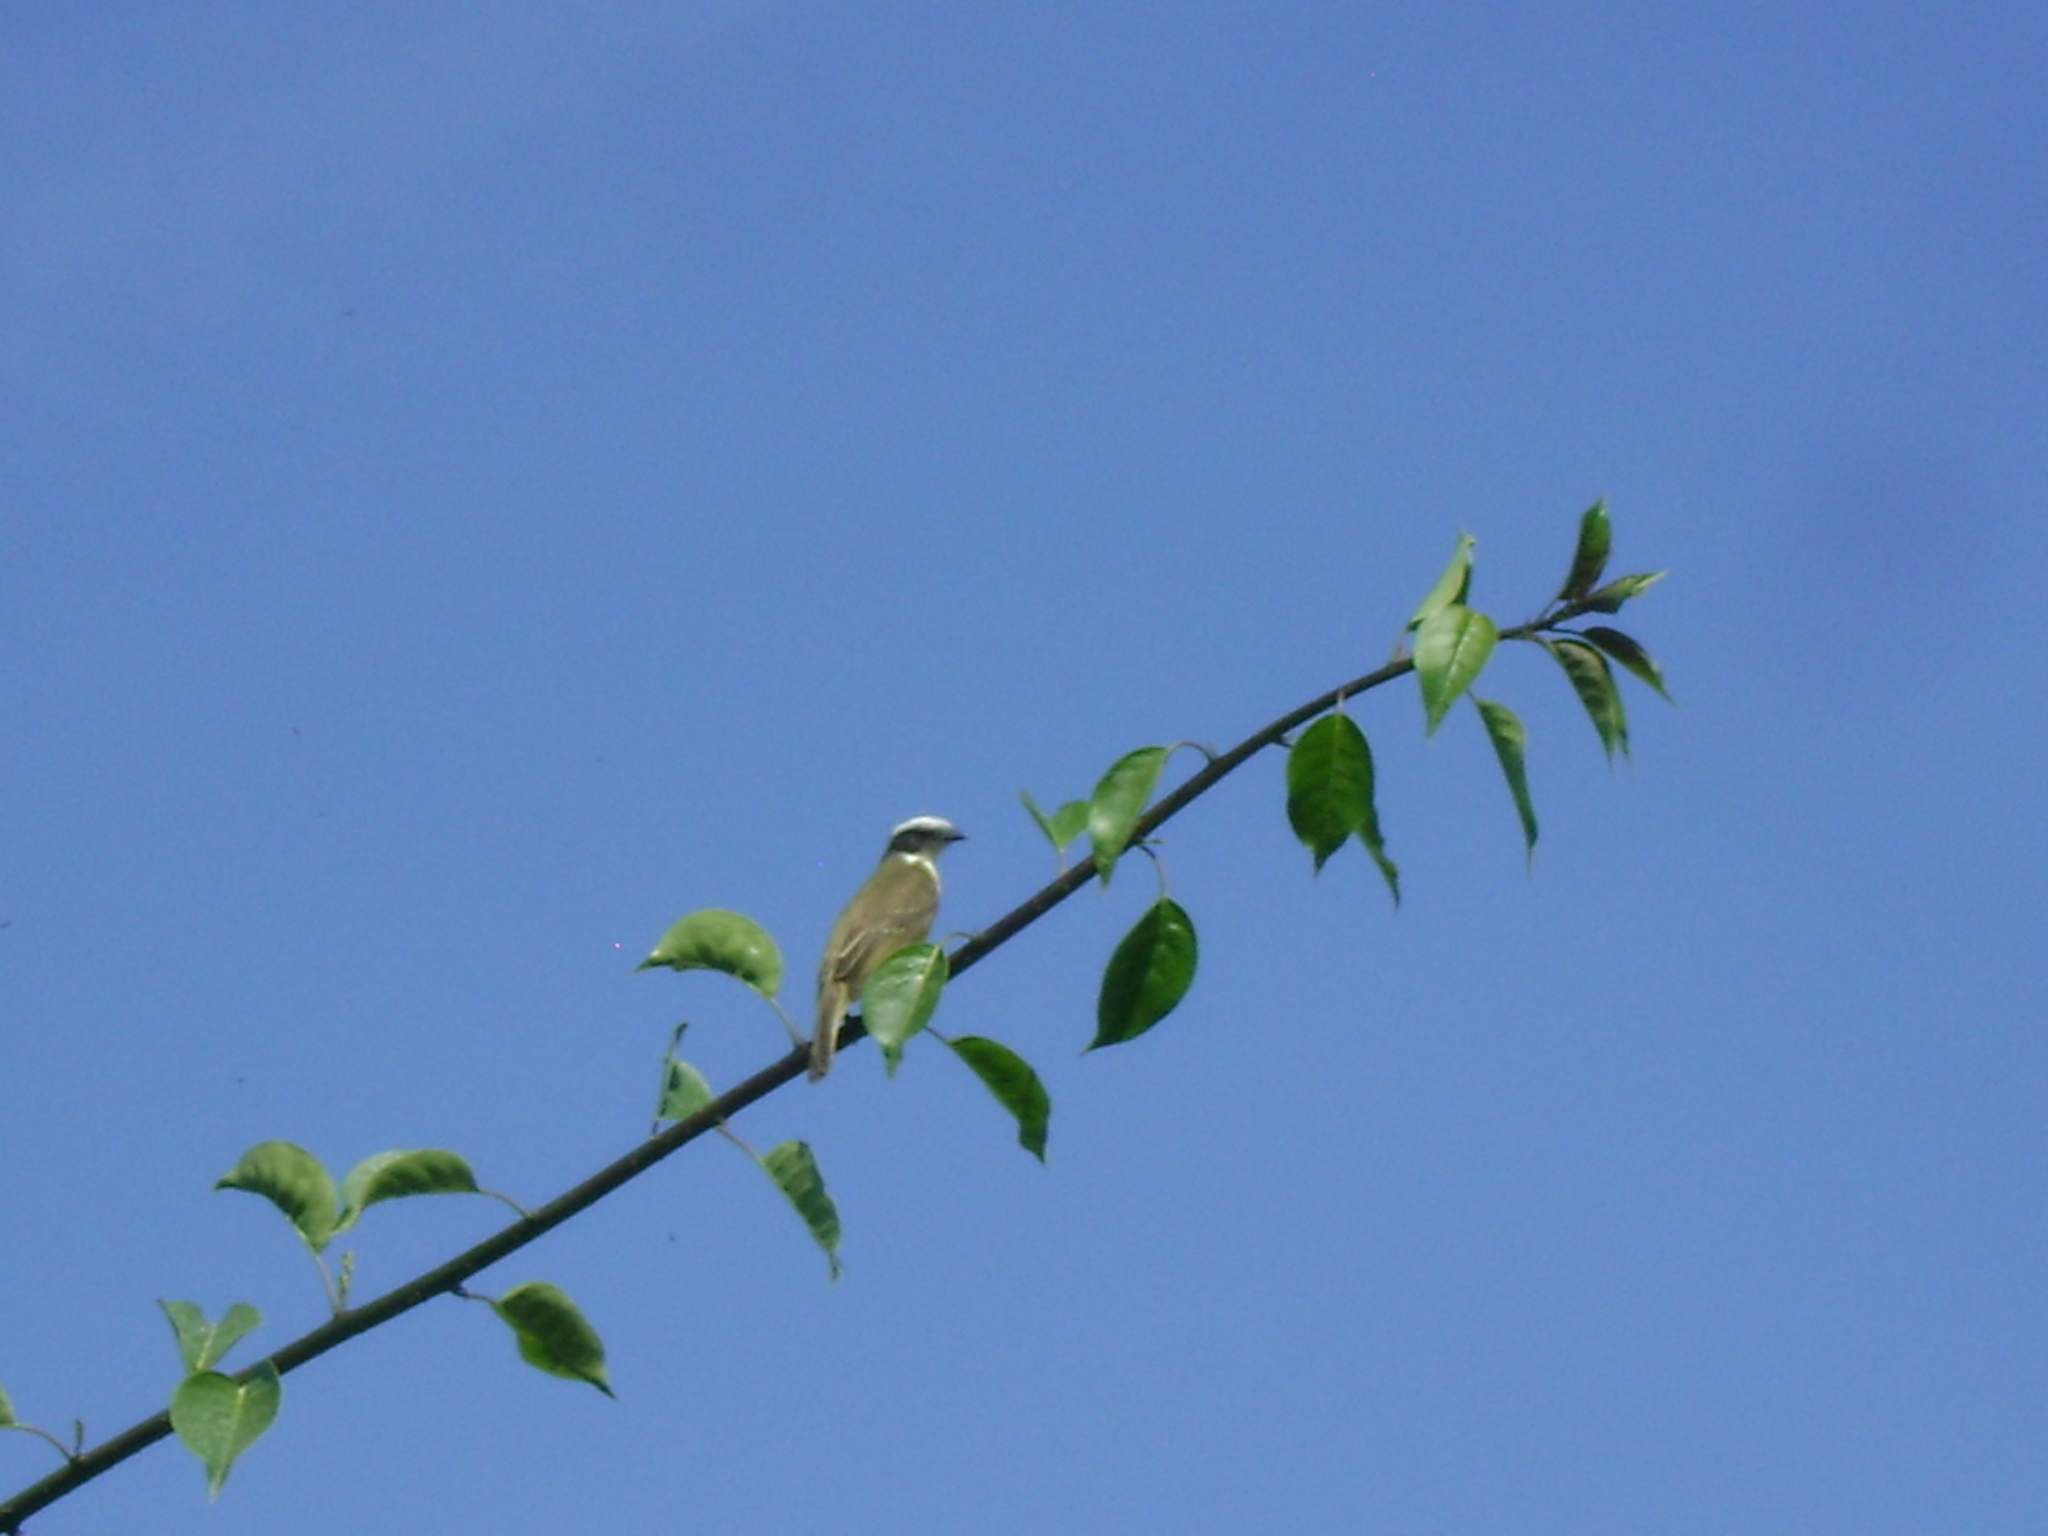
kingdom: Animalia
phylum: Chordata
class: Aves
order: Passeriformes
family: Tyrannidae
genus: Myiozetetes
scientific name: Myiozetetes similis
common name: Social flycatcher
